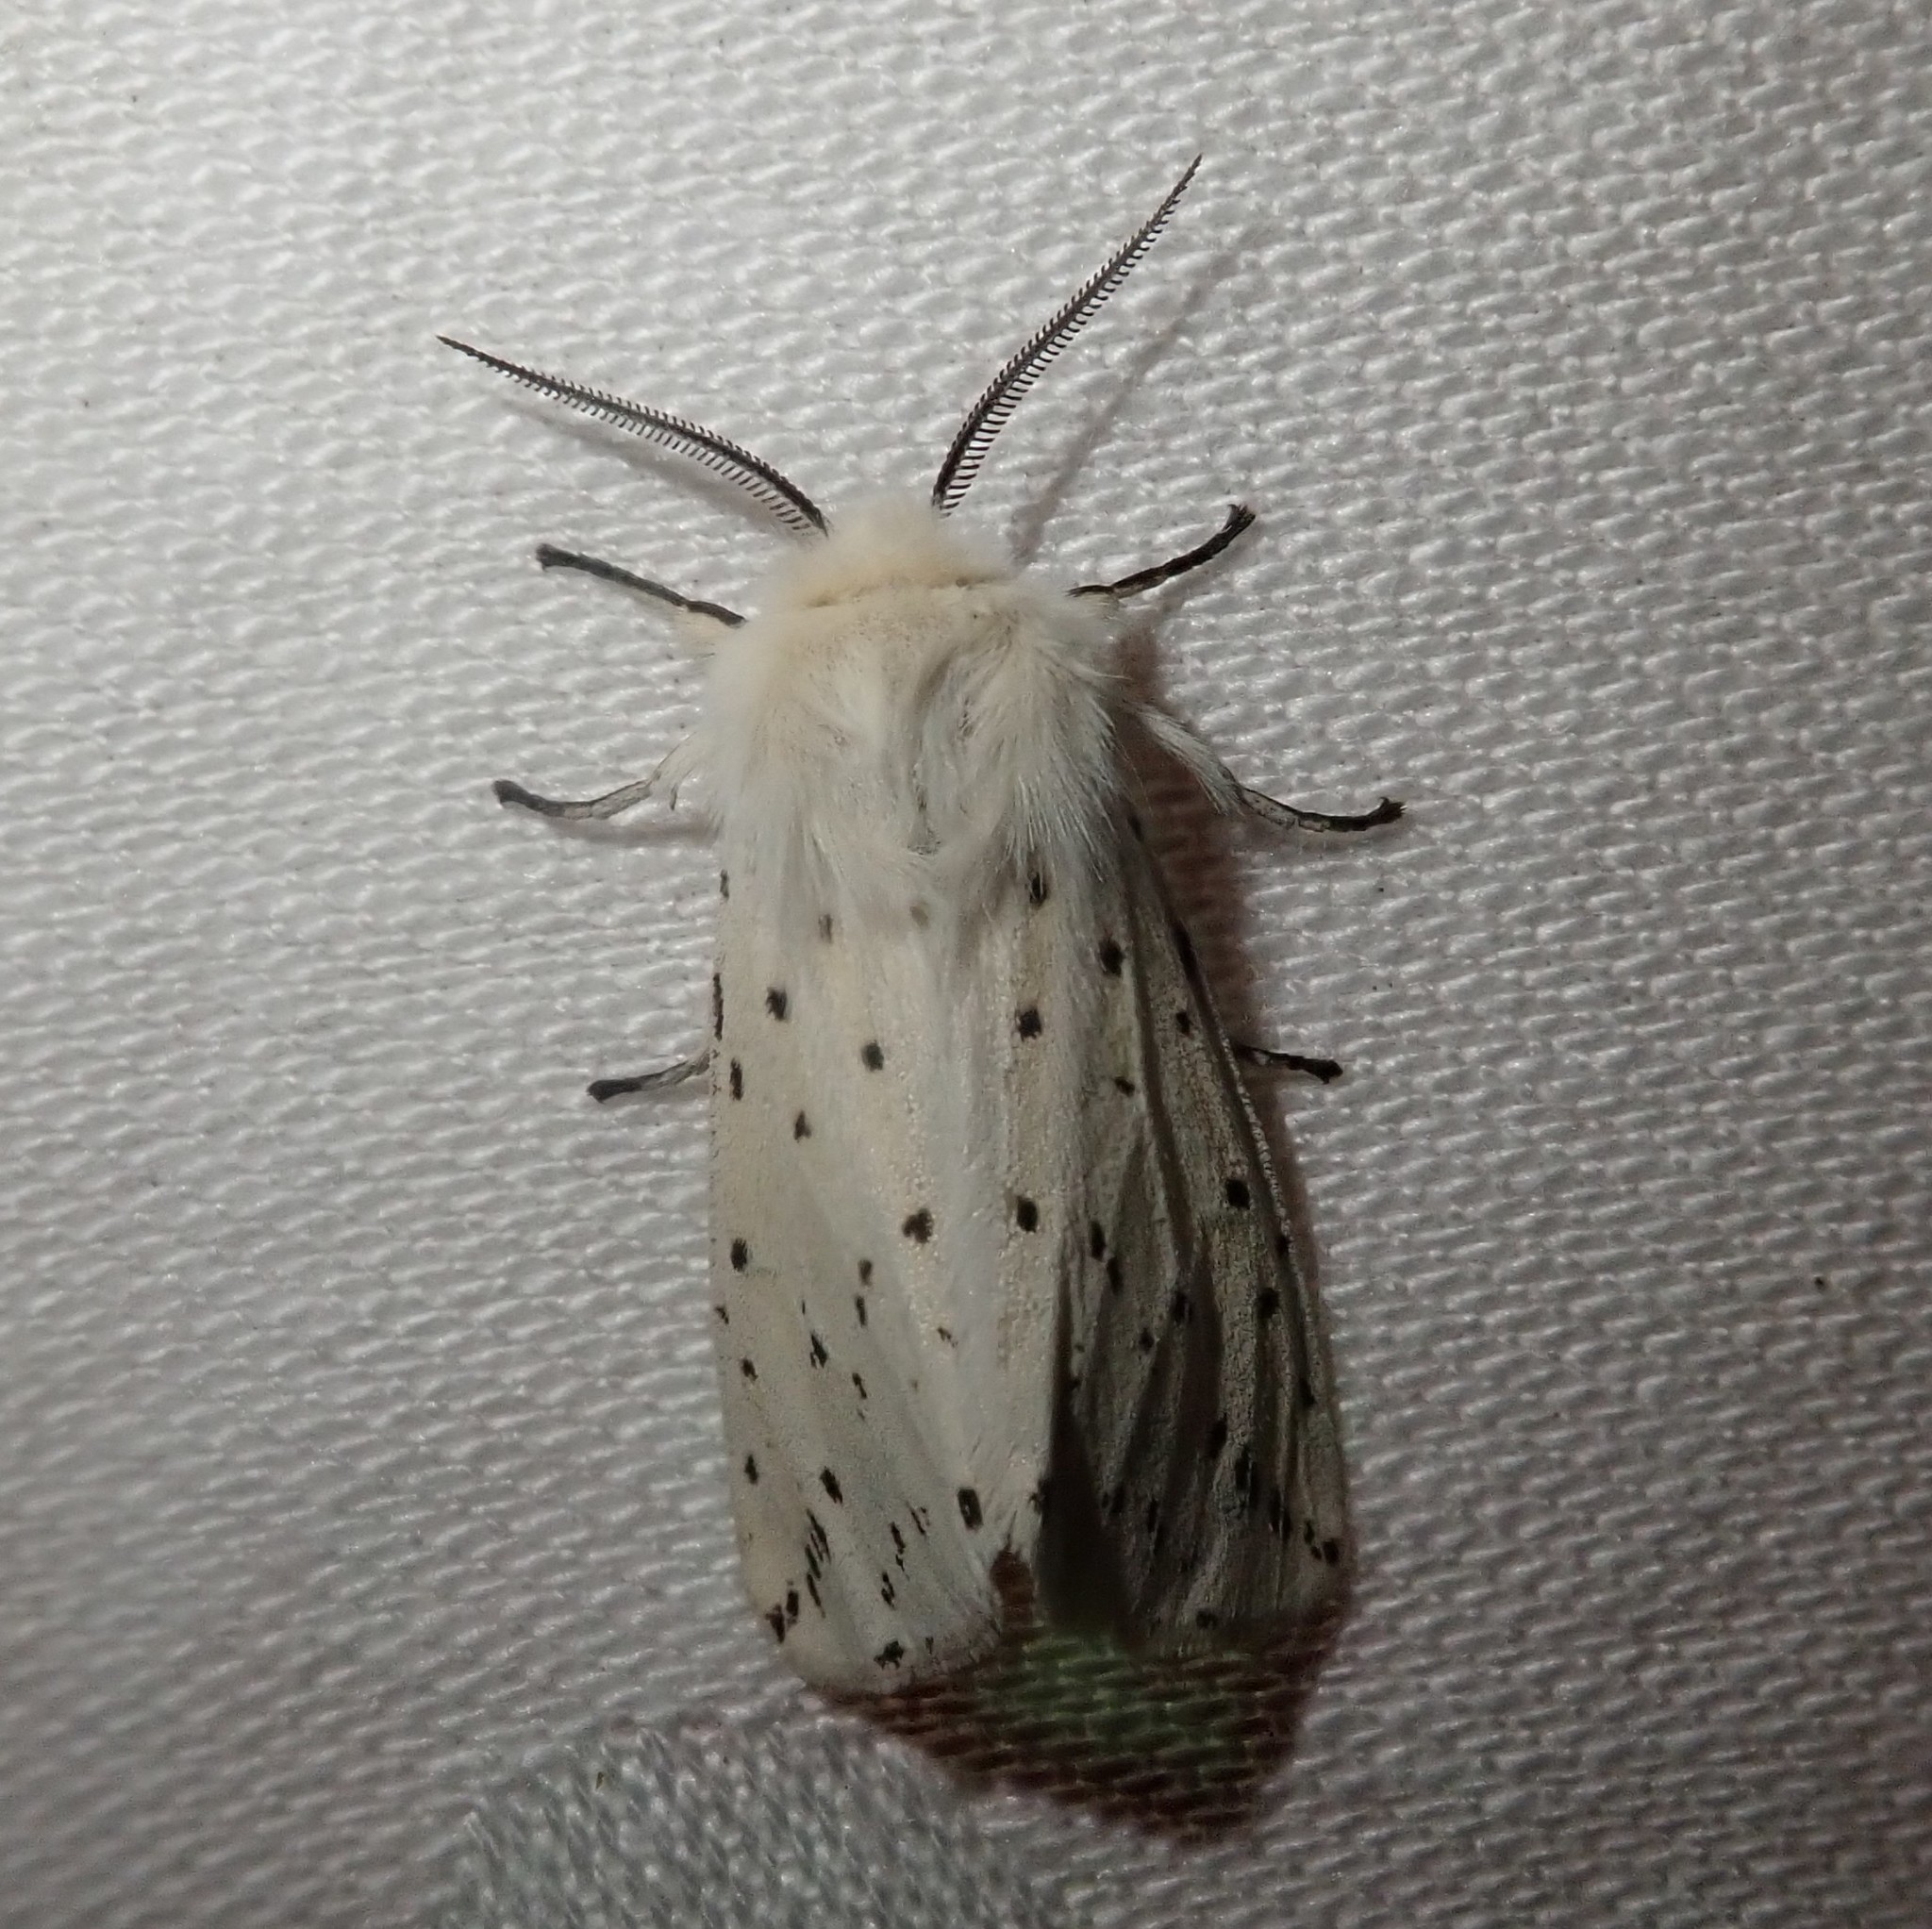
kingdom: Animalia
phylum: Arthropoda
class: Insecta
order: Lepidoptera
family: Erebidae
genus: Spilosoma
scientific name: Spilosoma lubricipeda
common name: White ermine
